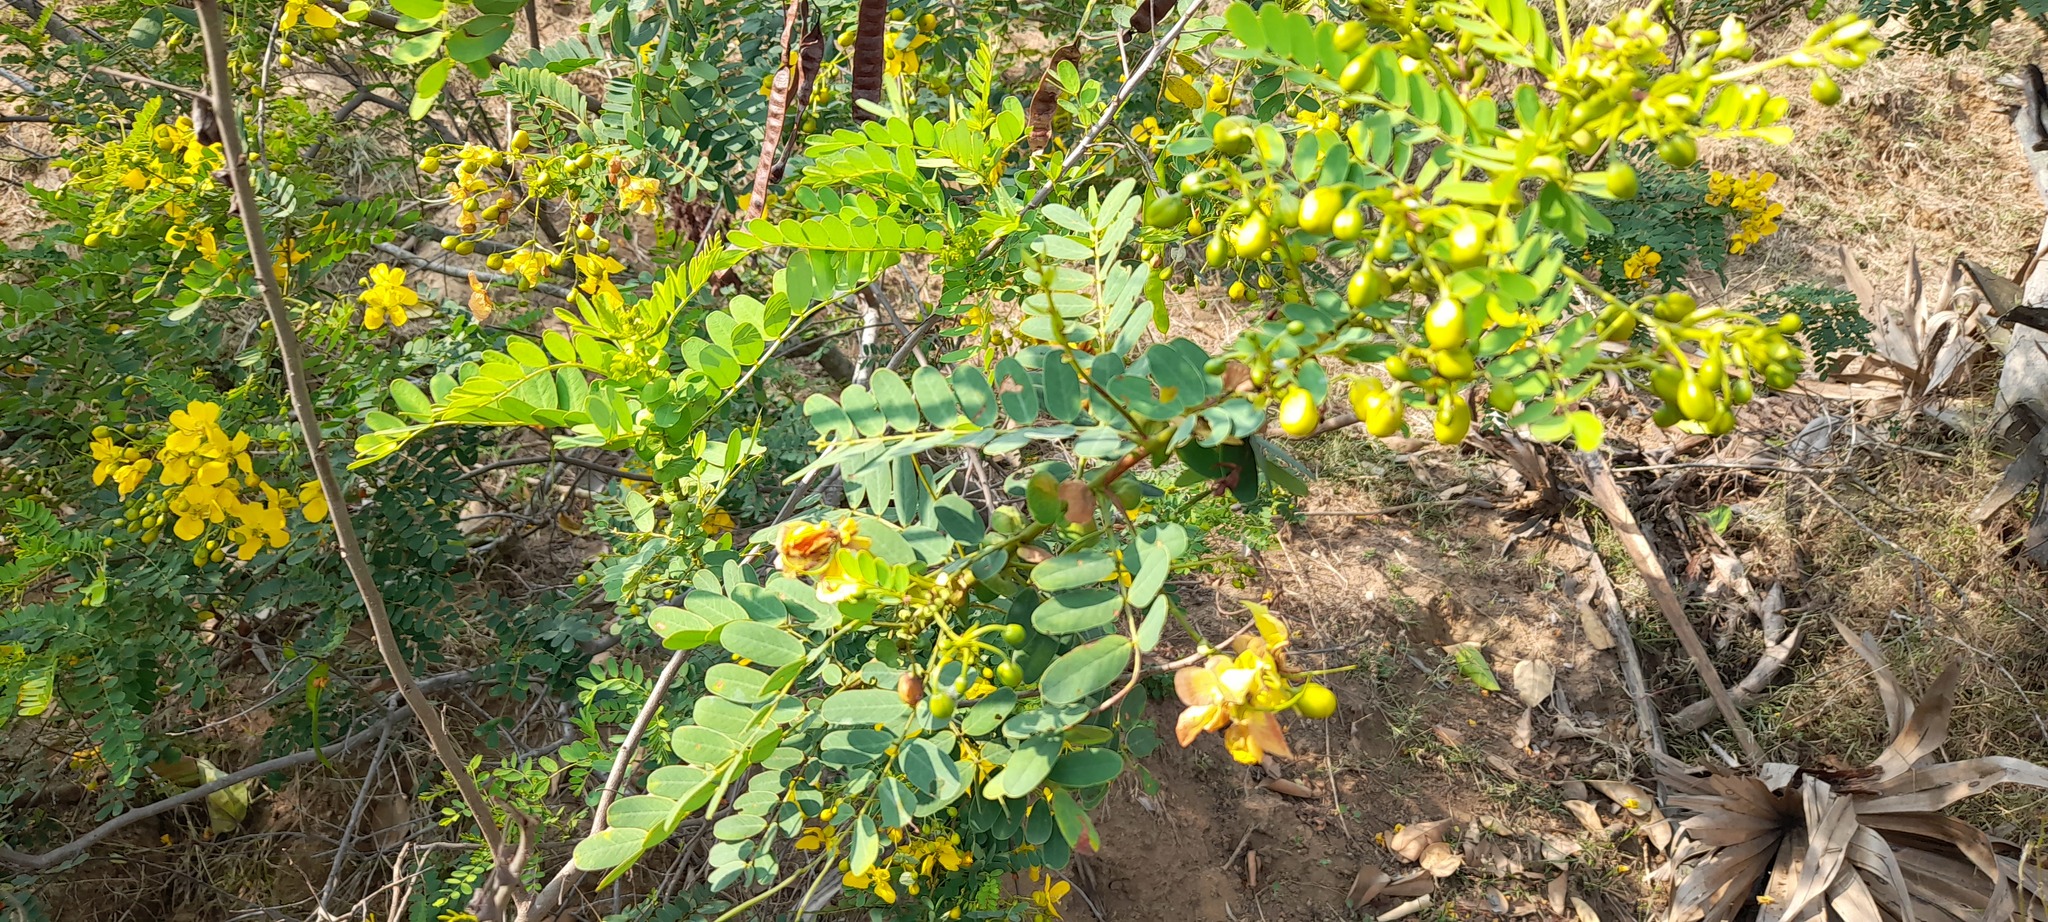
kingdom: Plantae
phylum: Tracheophyta
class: Magnoliopsida
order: Fabales
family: Fabaceae
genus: Senna
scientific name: Senna auriculata
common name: Tanner's cassia
